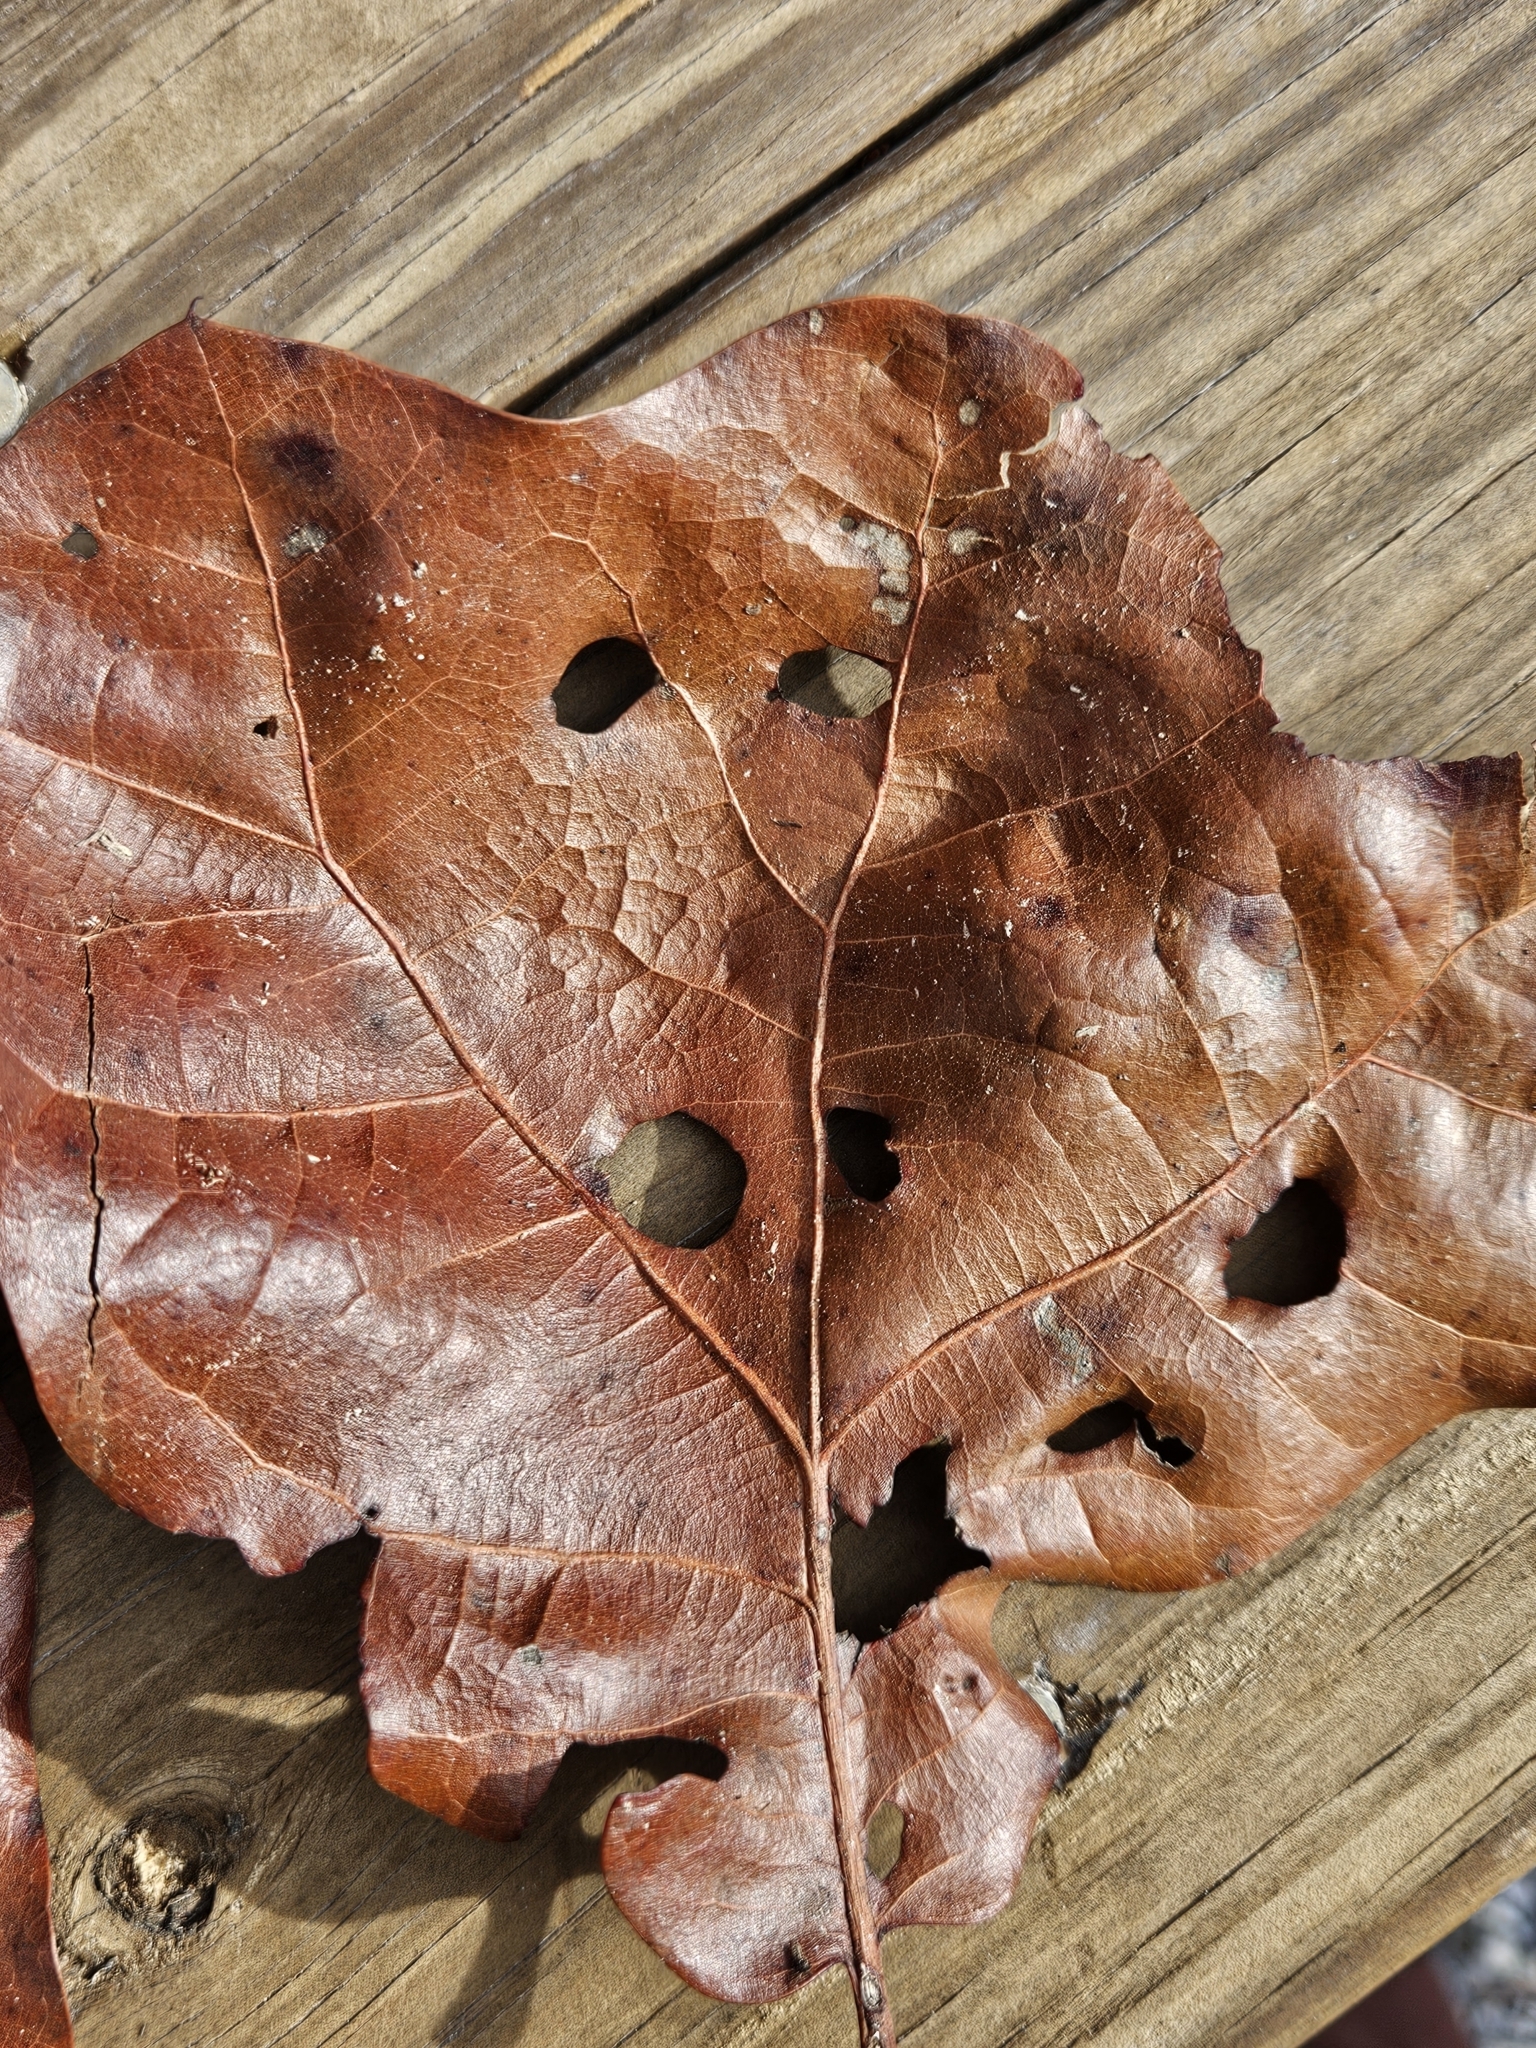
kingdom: Animalia
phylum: Arthropoda
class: Insecta
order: Diptera
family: Agromyzidae
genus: Japanagromyza
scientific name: Japanagromyza viridula
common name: Oak shothole leafminer
